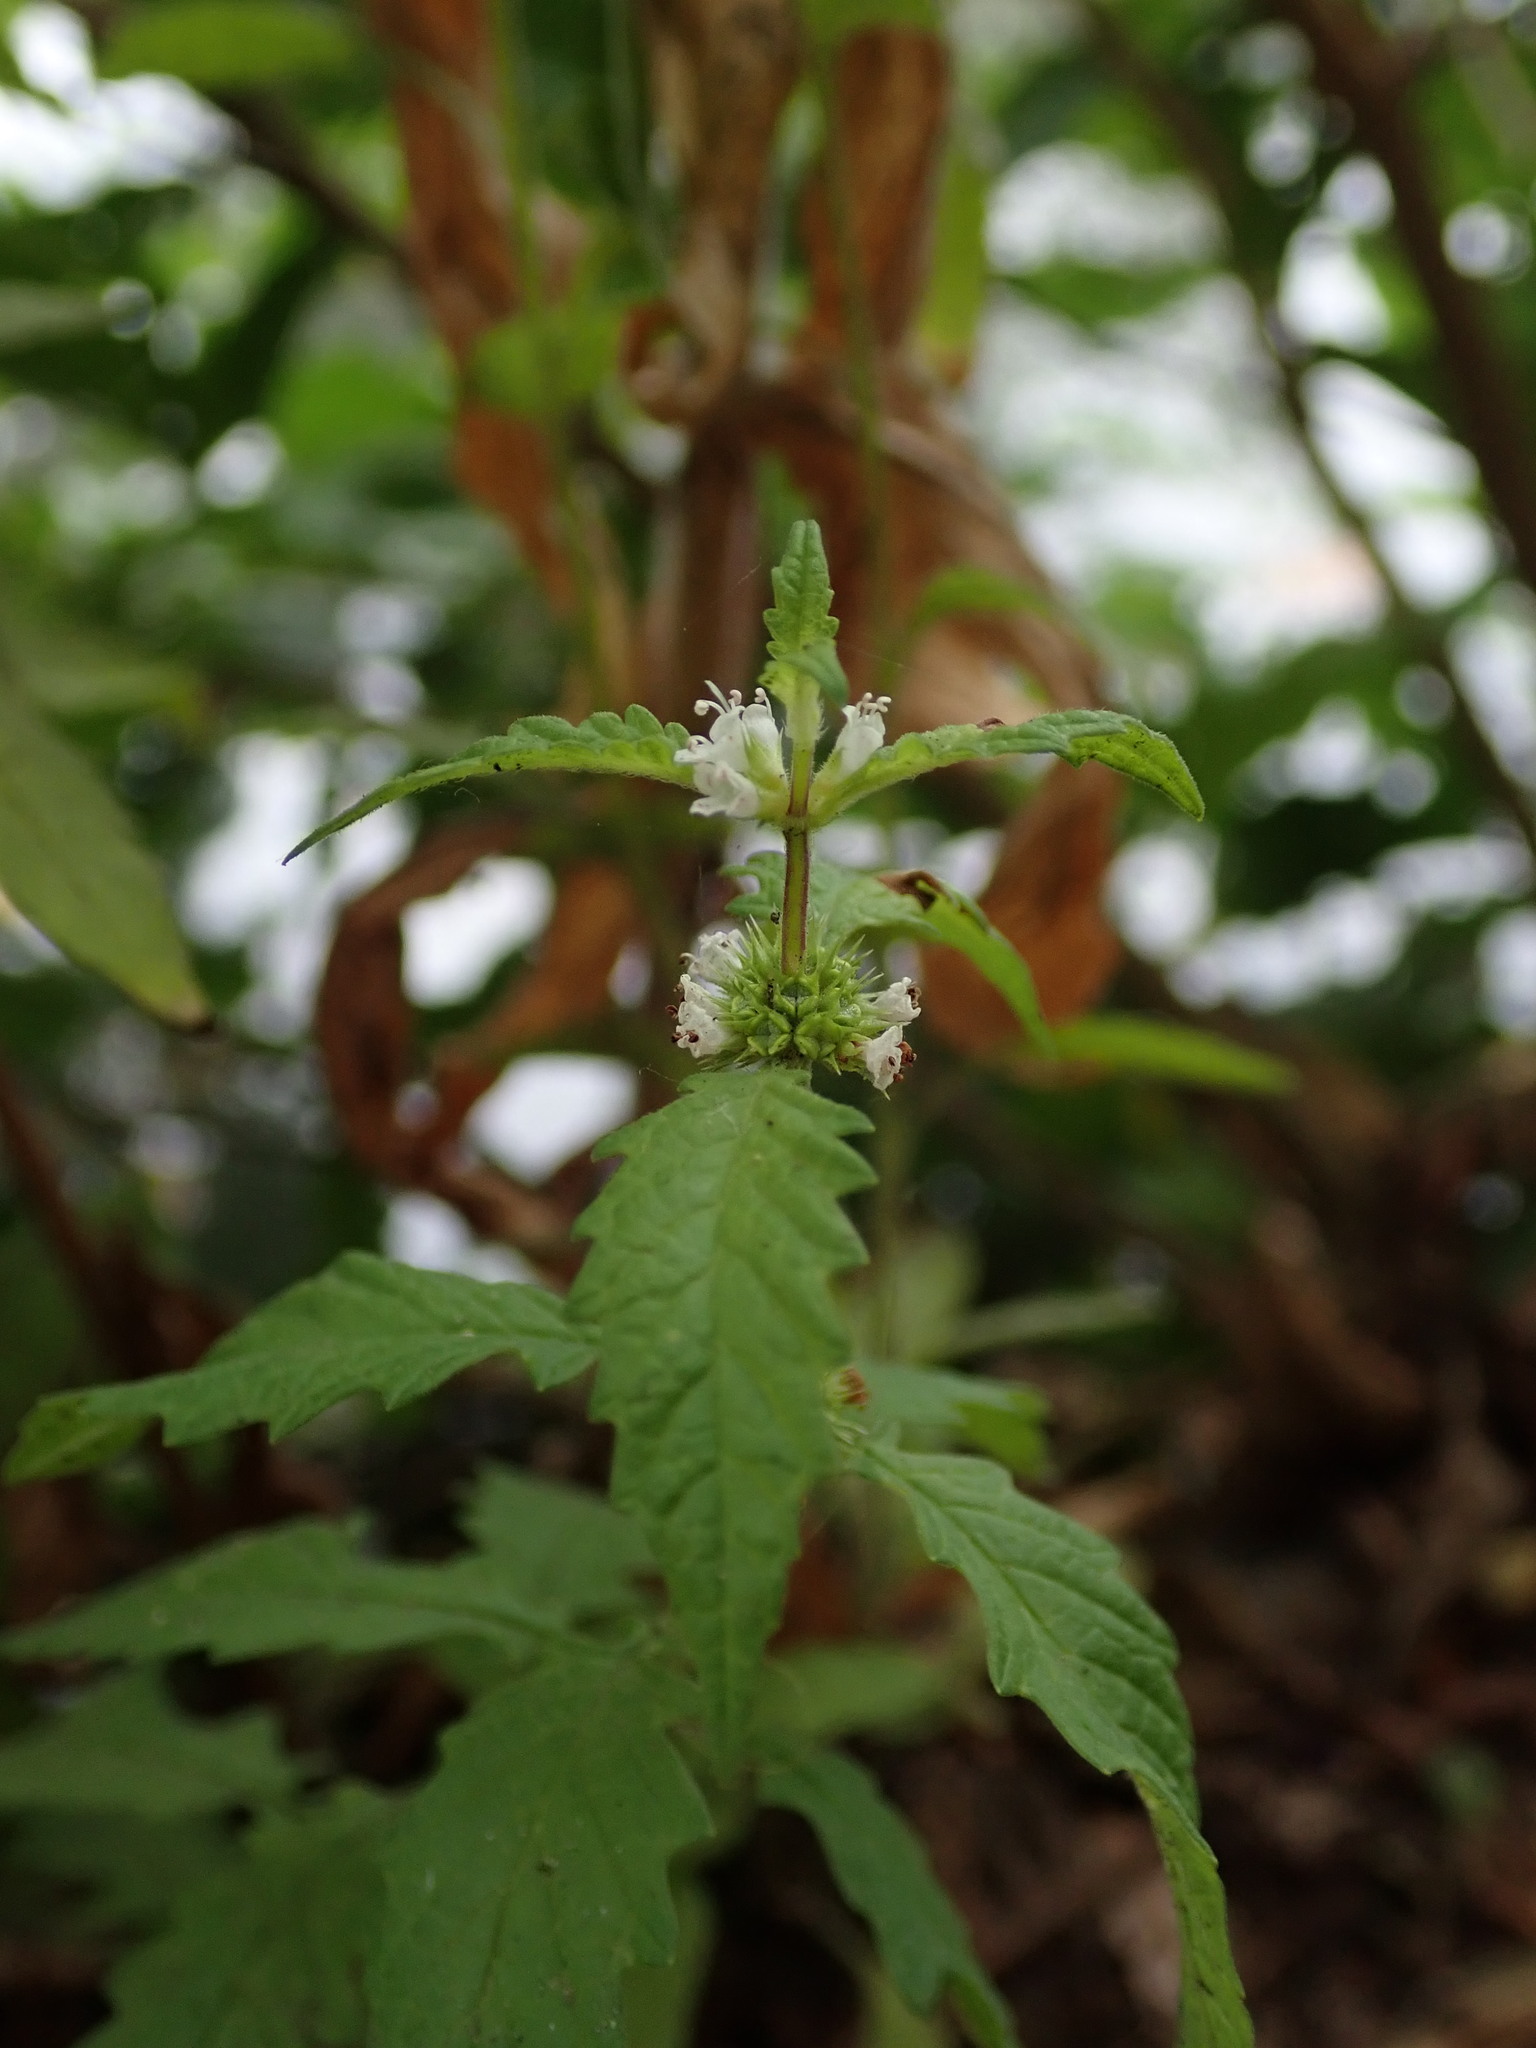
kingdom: Plantae
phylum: Tracheophyta
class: Magnoliopsida
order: Lamiales
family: Lamiaceae
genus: Lycopus
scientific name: Lycopus europaeus
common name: European bugleweed
